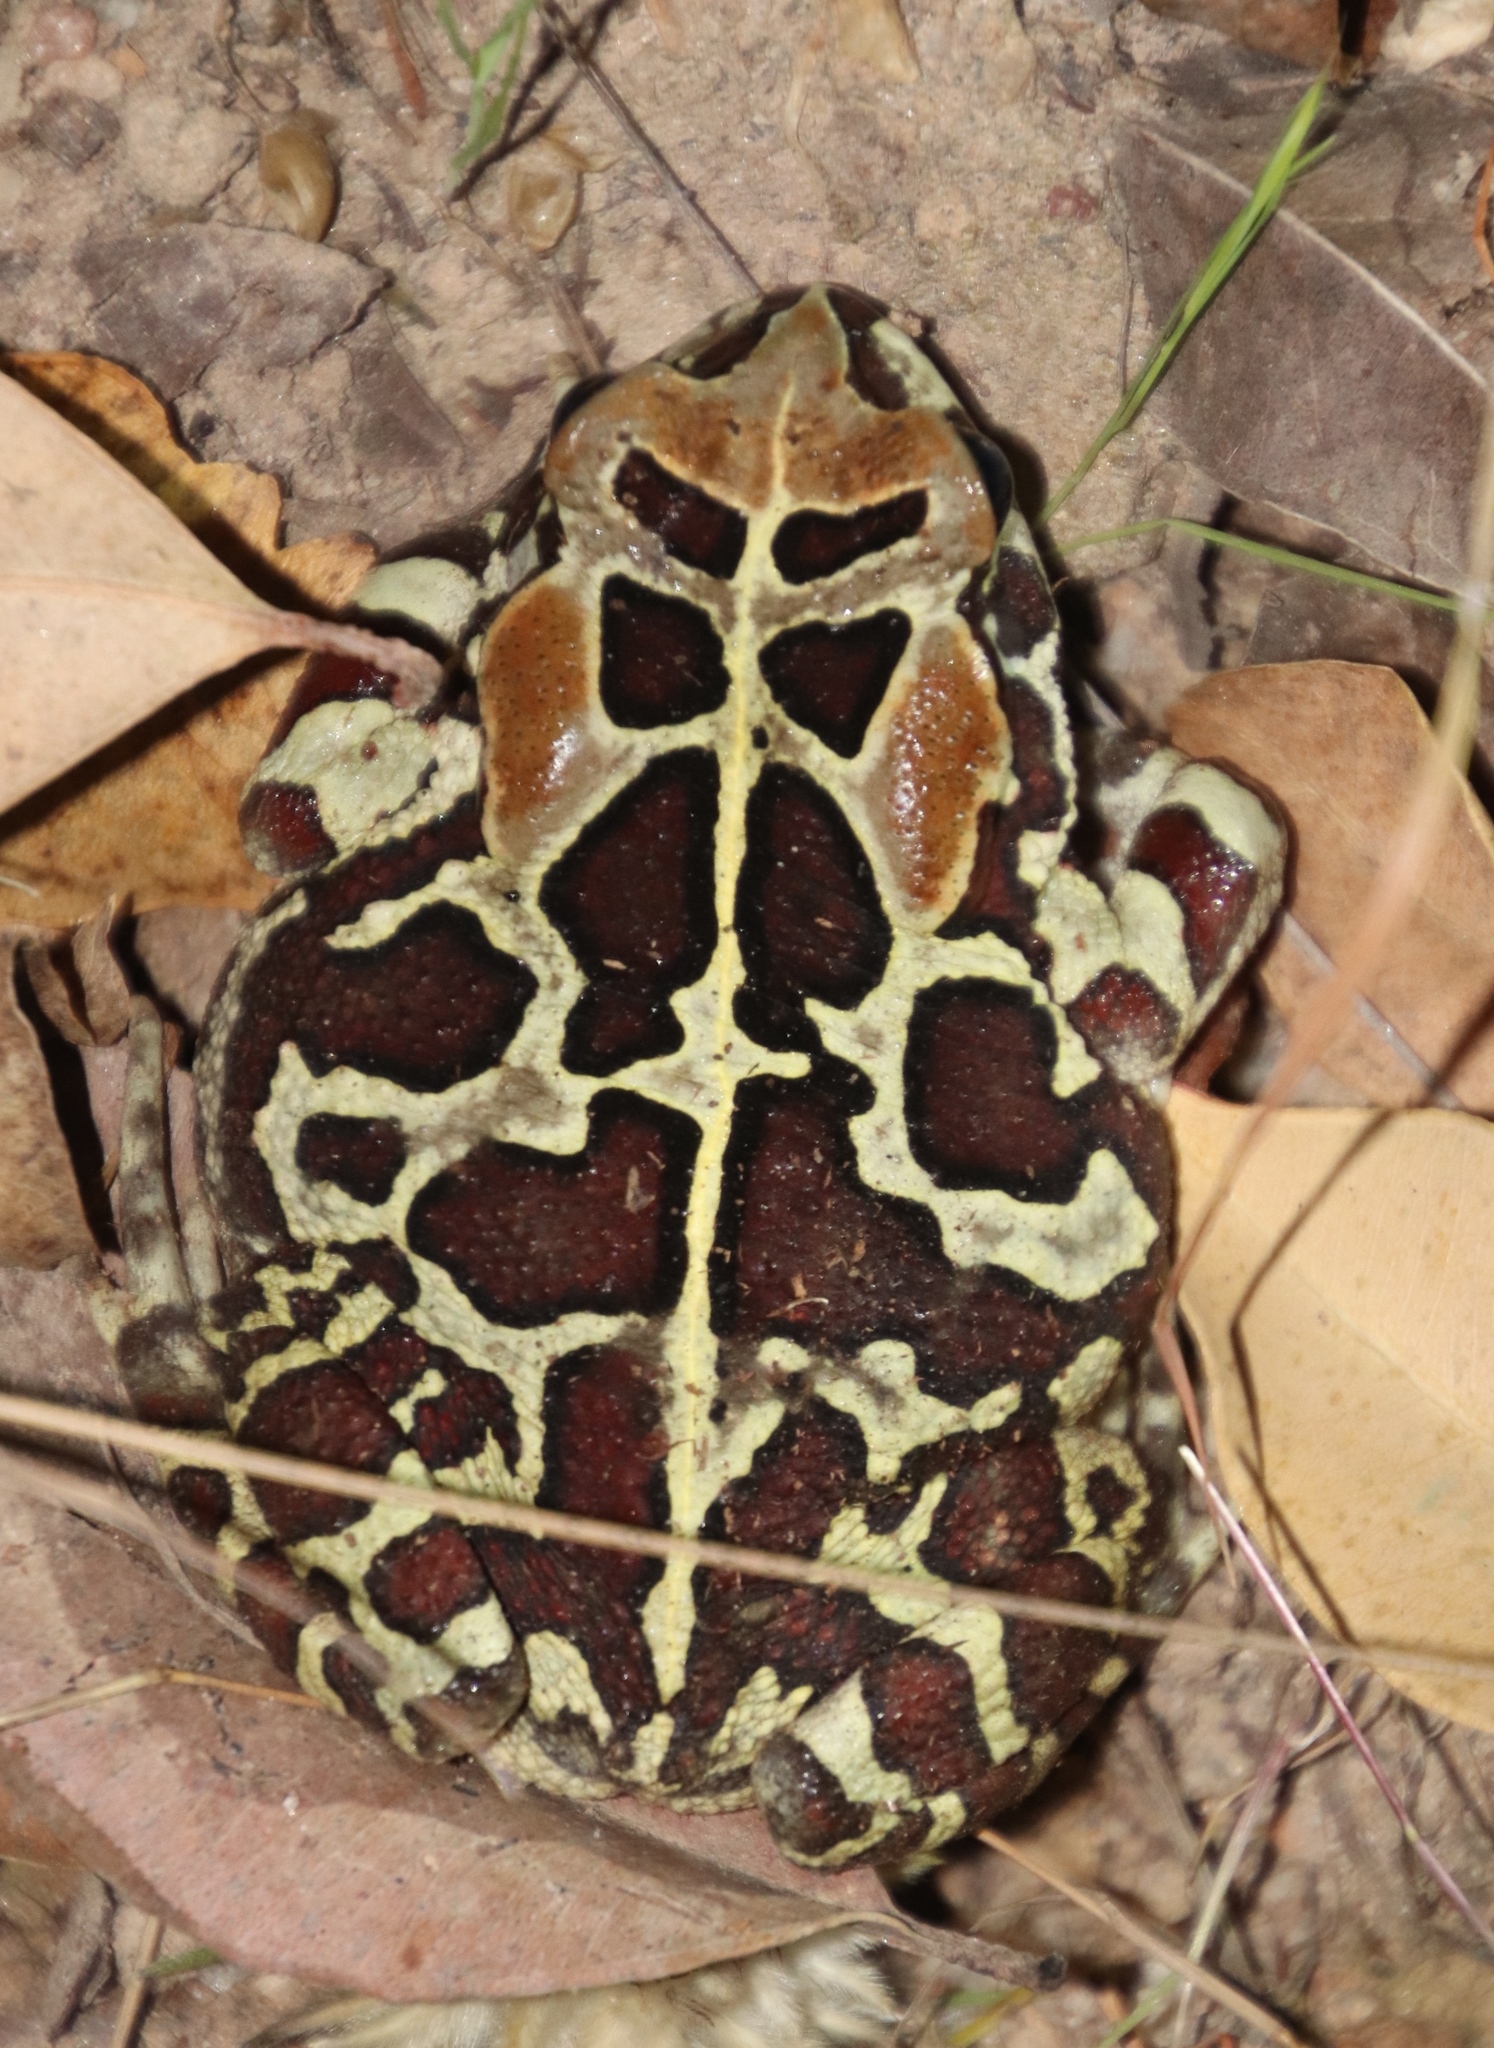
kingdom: Animalia
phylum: Chordata
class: Amphibia
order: Anura
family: Bufonidae
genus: Sclerophrys
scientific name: Sclerophrys pantherina
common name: Panther toad
